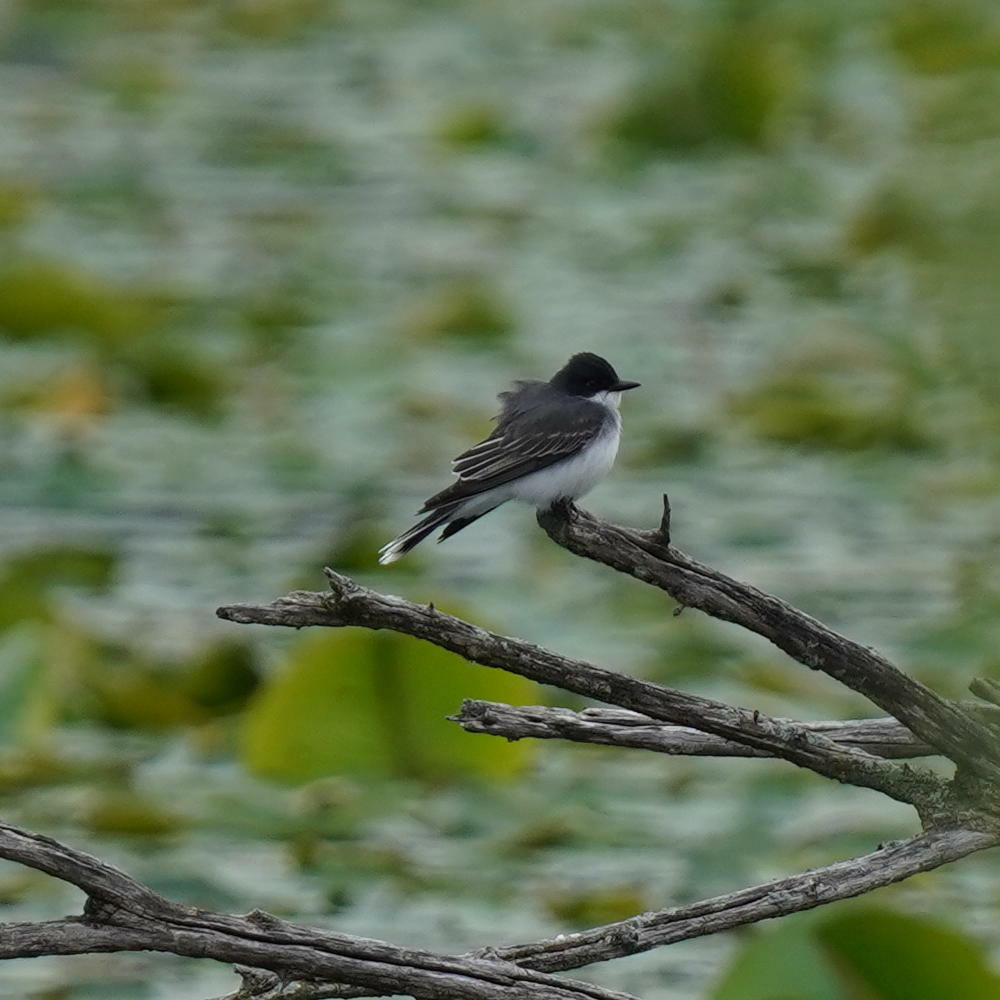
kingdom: Animalia
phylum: Chordata
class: Aves
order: Passeriformes
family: Tyrannidae
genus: Tyrannus
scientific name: Tyrannus tyrannus
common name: Eastern kingbird
